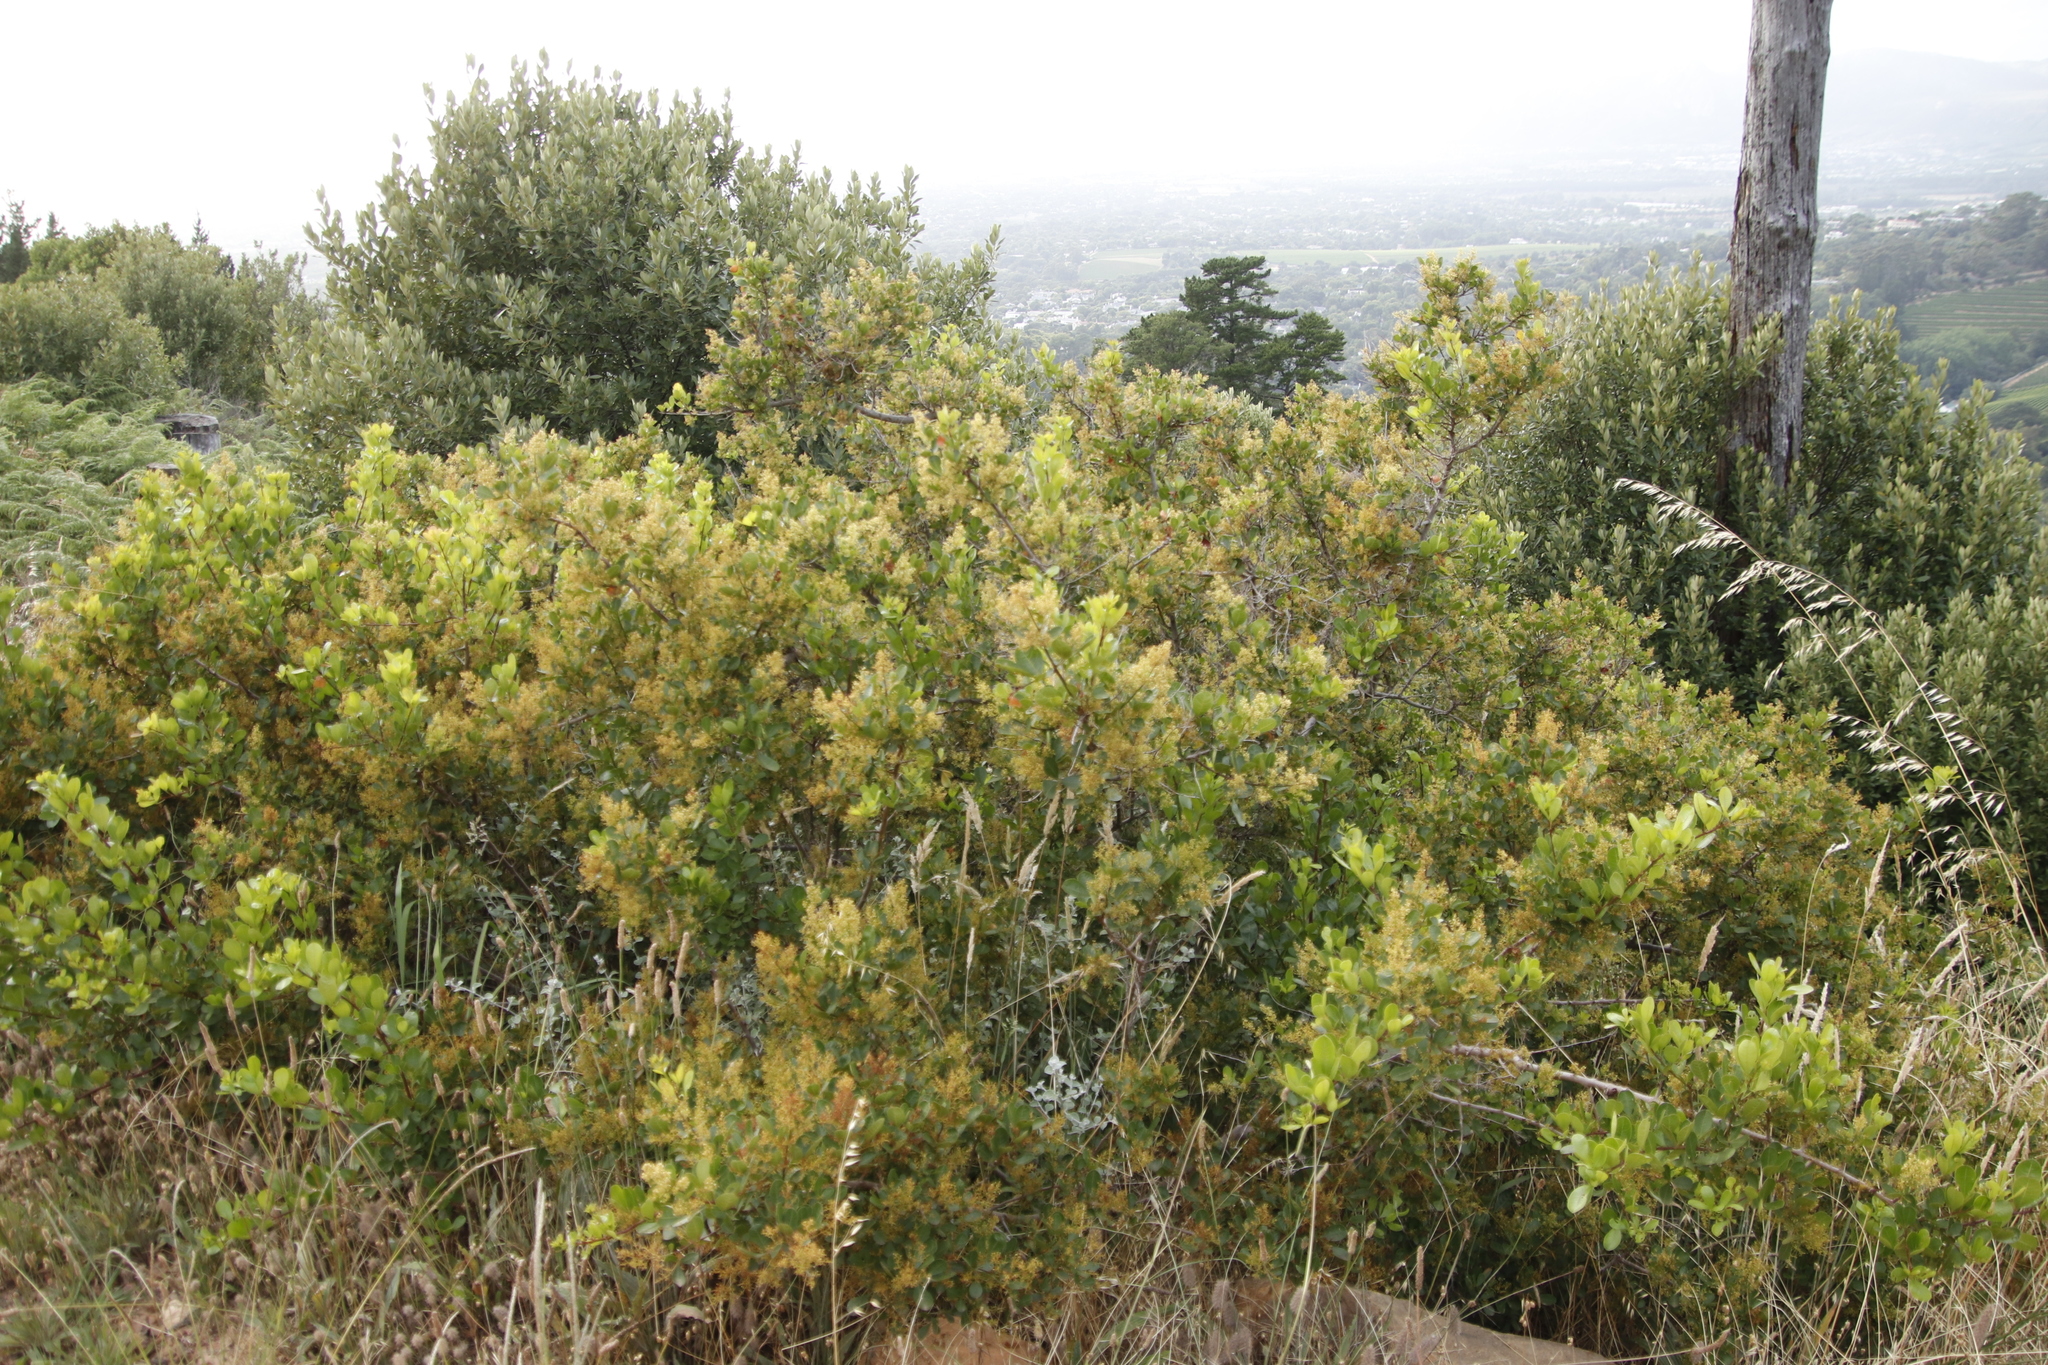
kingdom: Plantae
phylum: Tracheophyta
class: Magnoliopsida
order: Sapindales
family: Anacardiaceae
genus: Searsia
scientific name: Searsia laevigata
